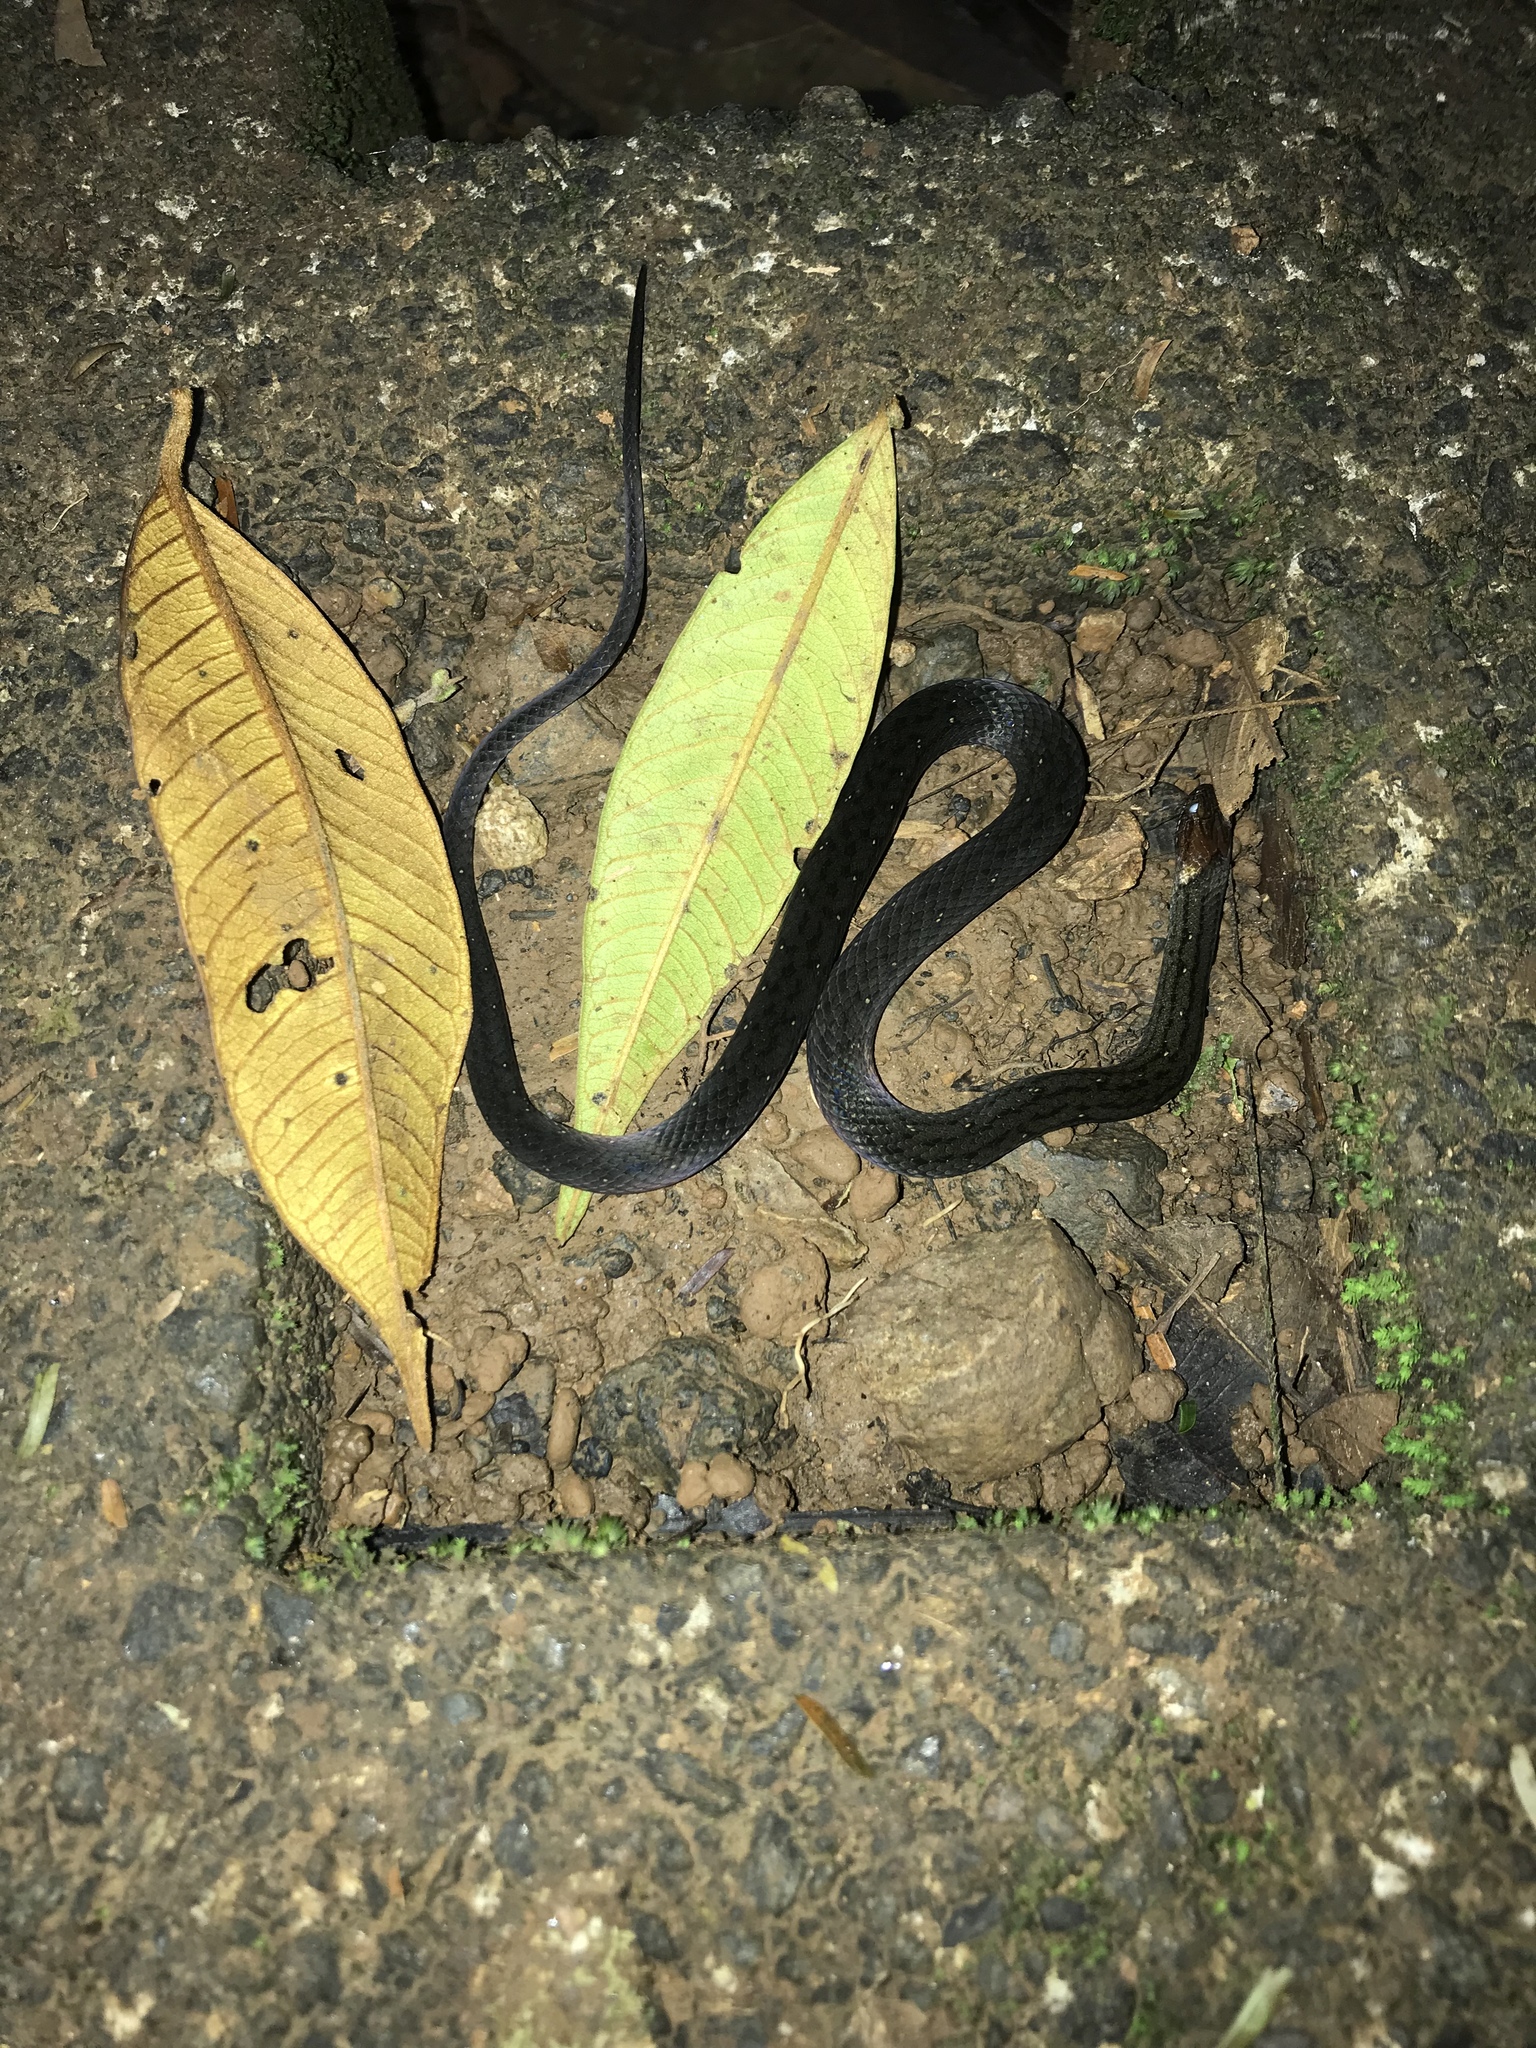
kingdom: Animalia
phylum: Chordata
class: Squamata
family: Colubridae
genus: Amastridium
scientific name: Amastridium veliferum
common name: Rustyhead snake
